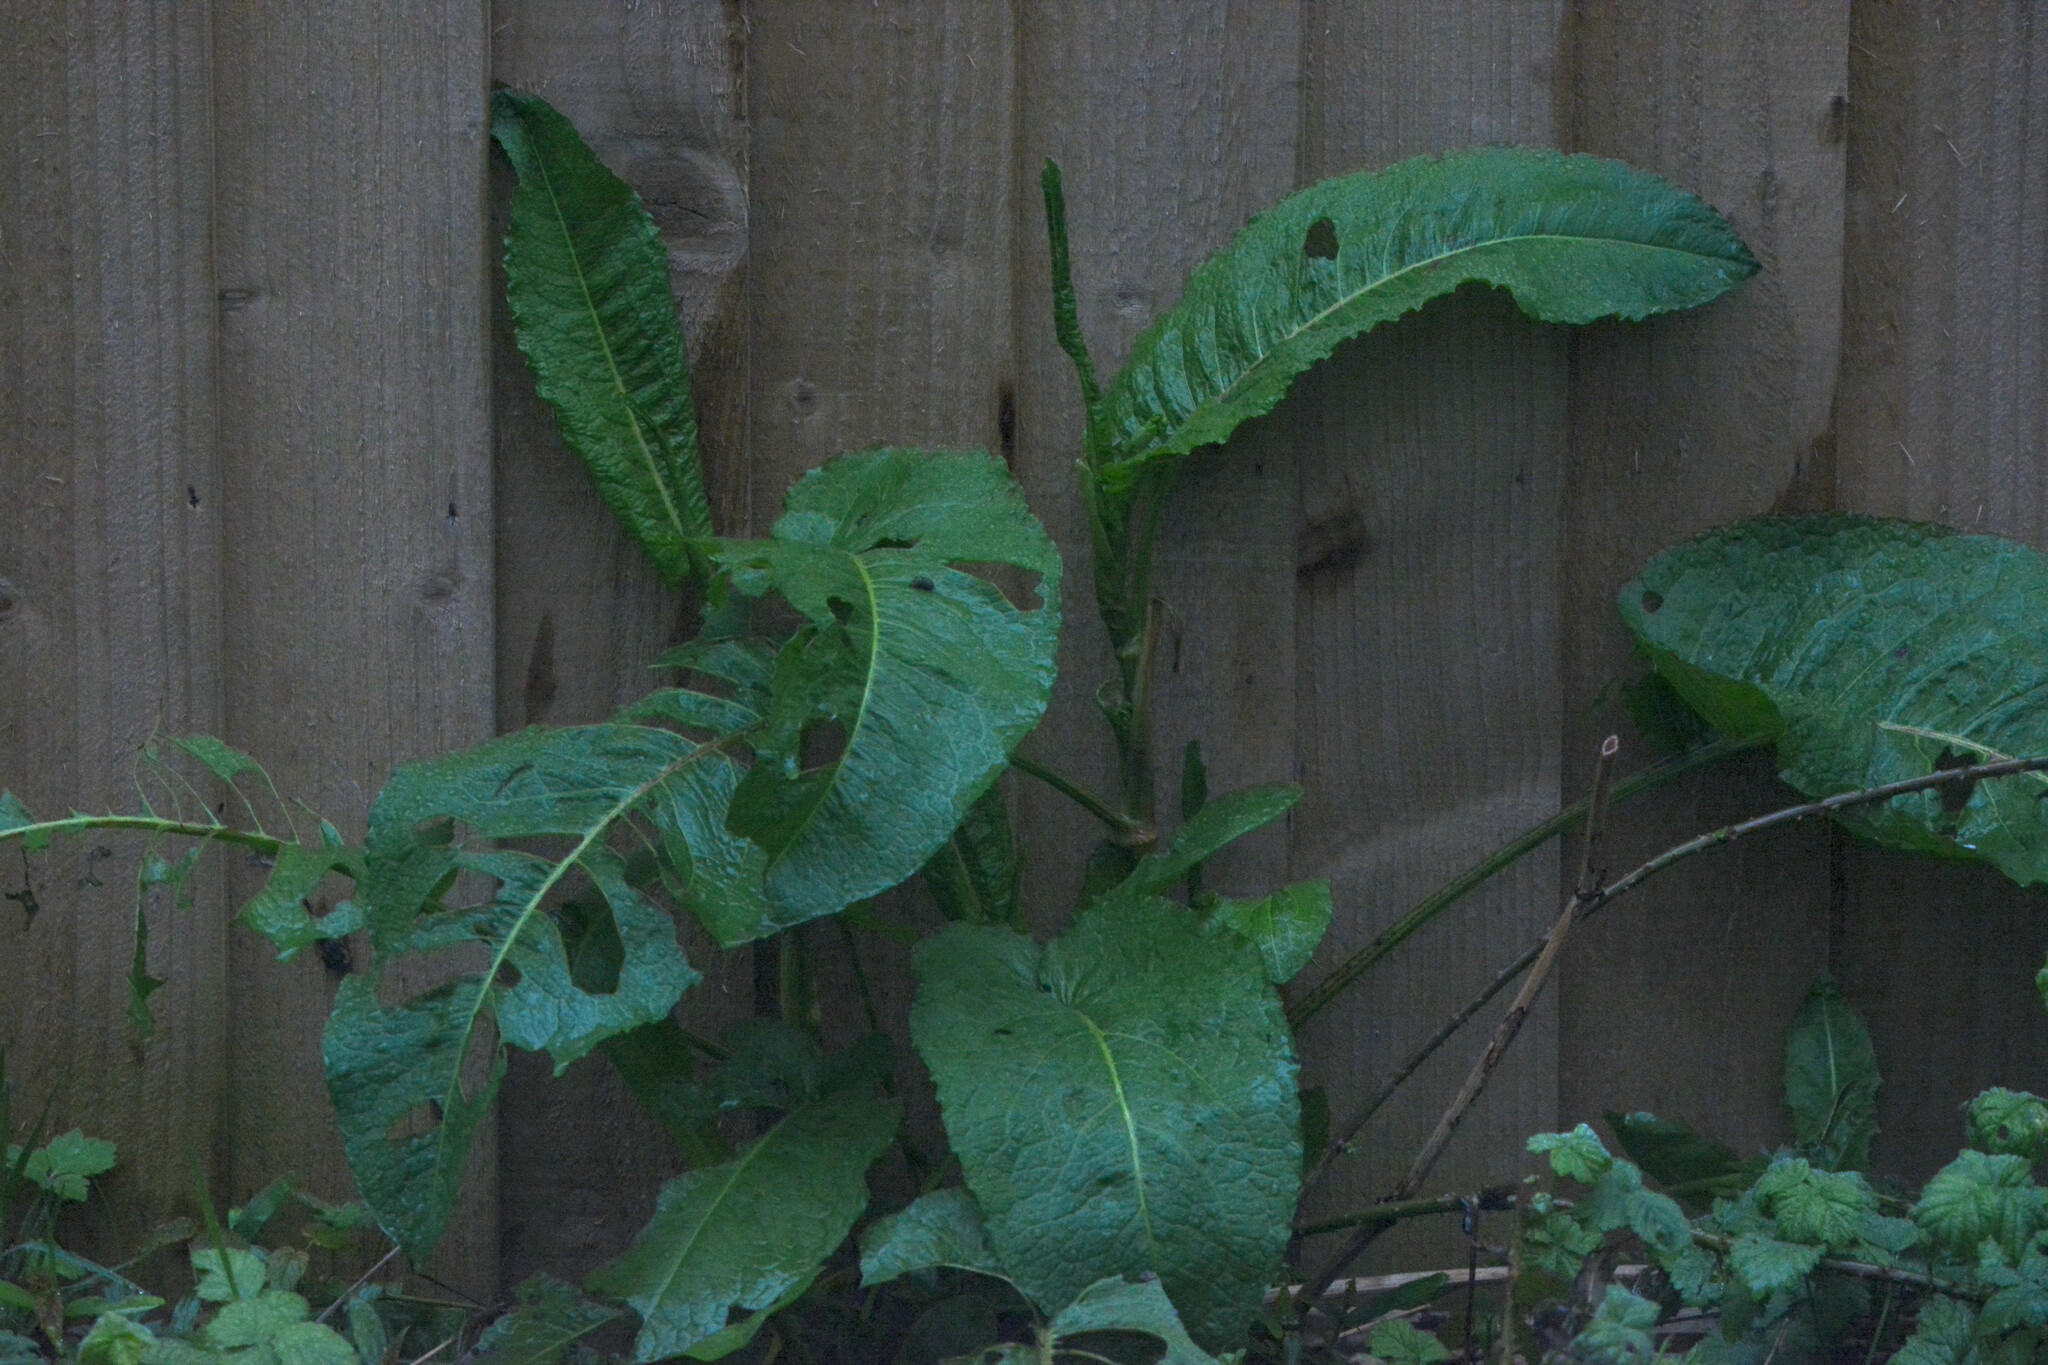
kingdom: Plantae
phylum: Tracheophyta
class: Magnoliopsida
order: Caryophyllales
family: Polygonaceae
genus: Rumex
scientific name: Rumex obtusifolius
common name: Bitter dock
